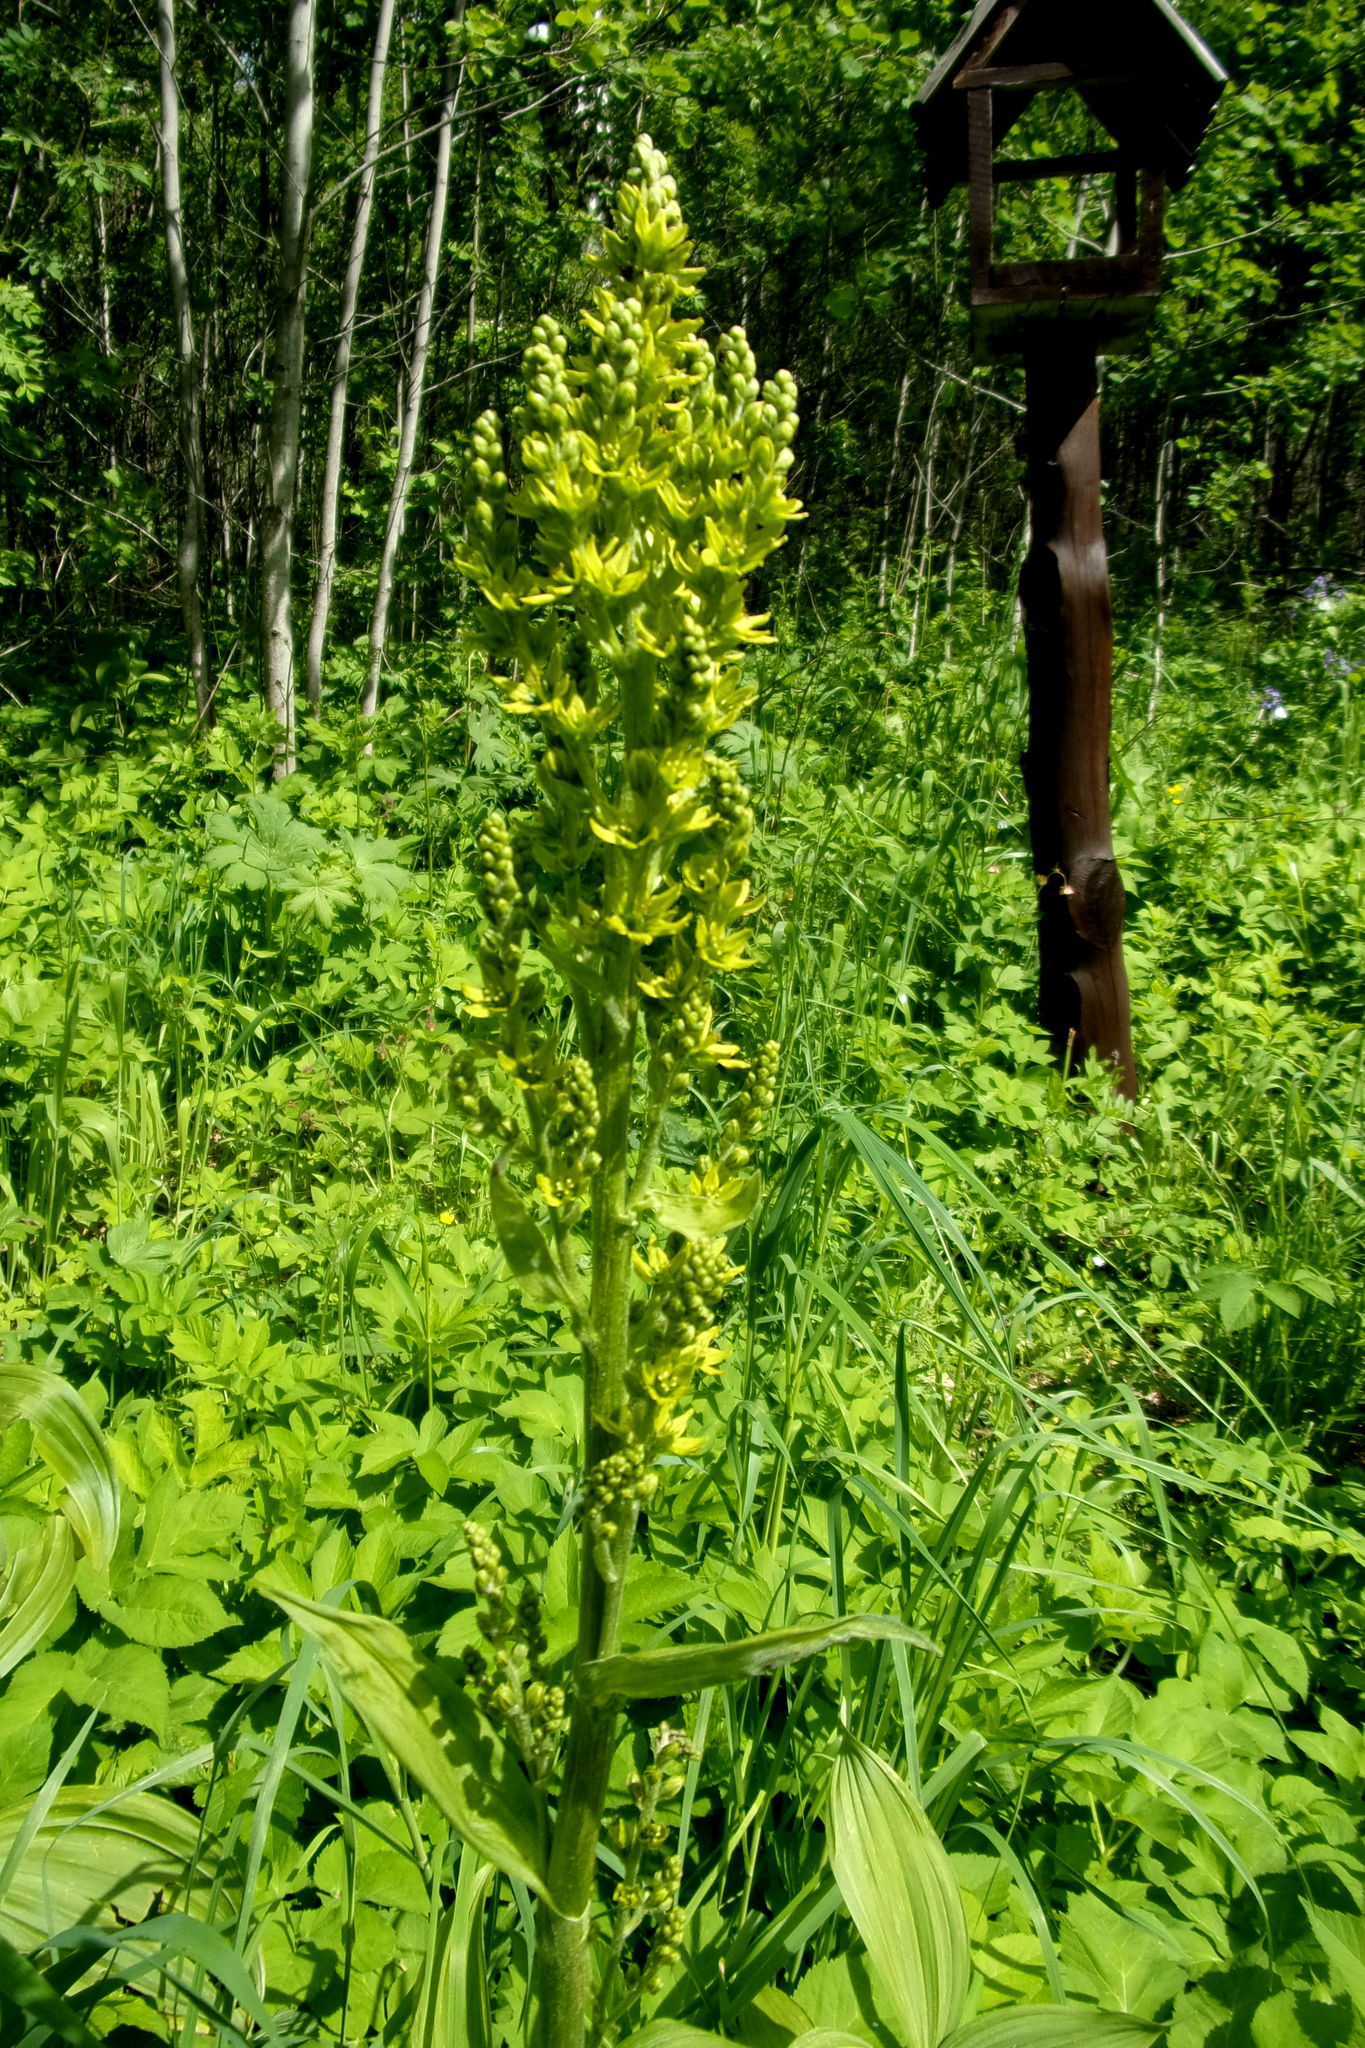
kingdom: Plantae
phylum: Tracheophyta
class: Liliopsida
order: Liliales
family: Melanthiaceae
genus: Veratrum
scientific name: Veratrum lobelianum
